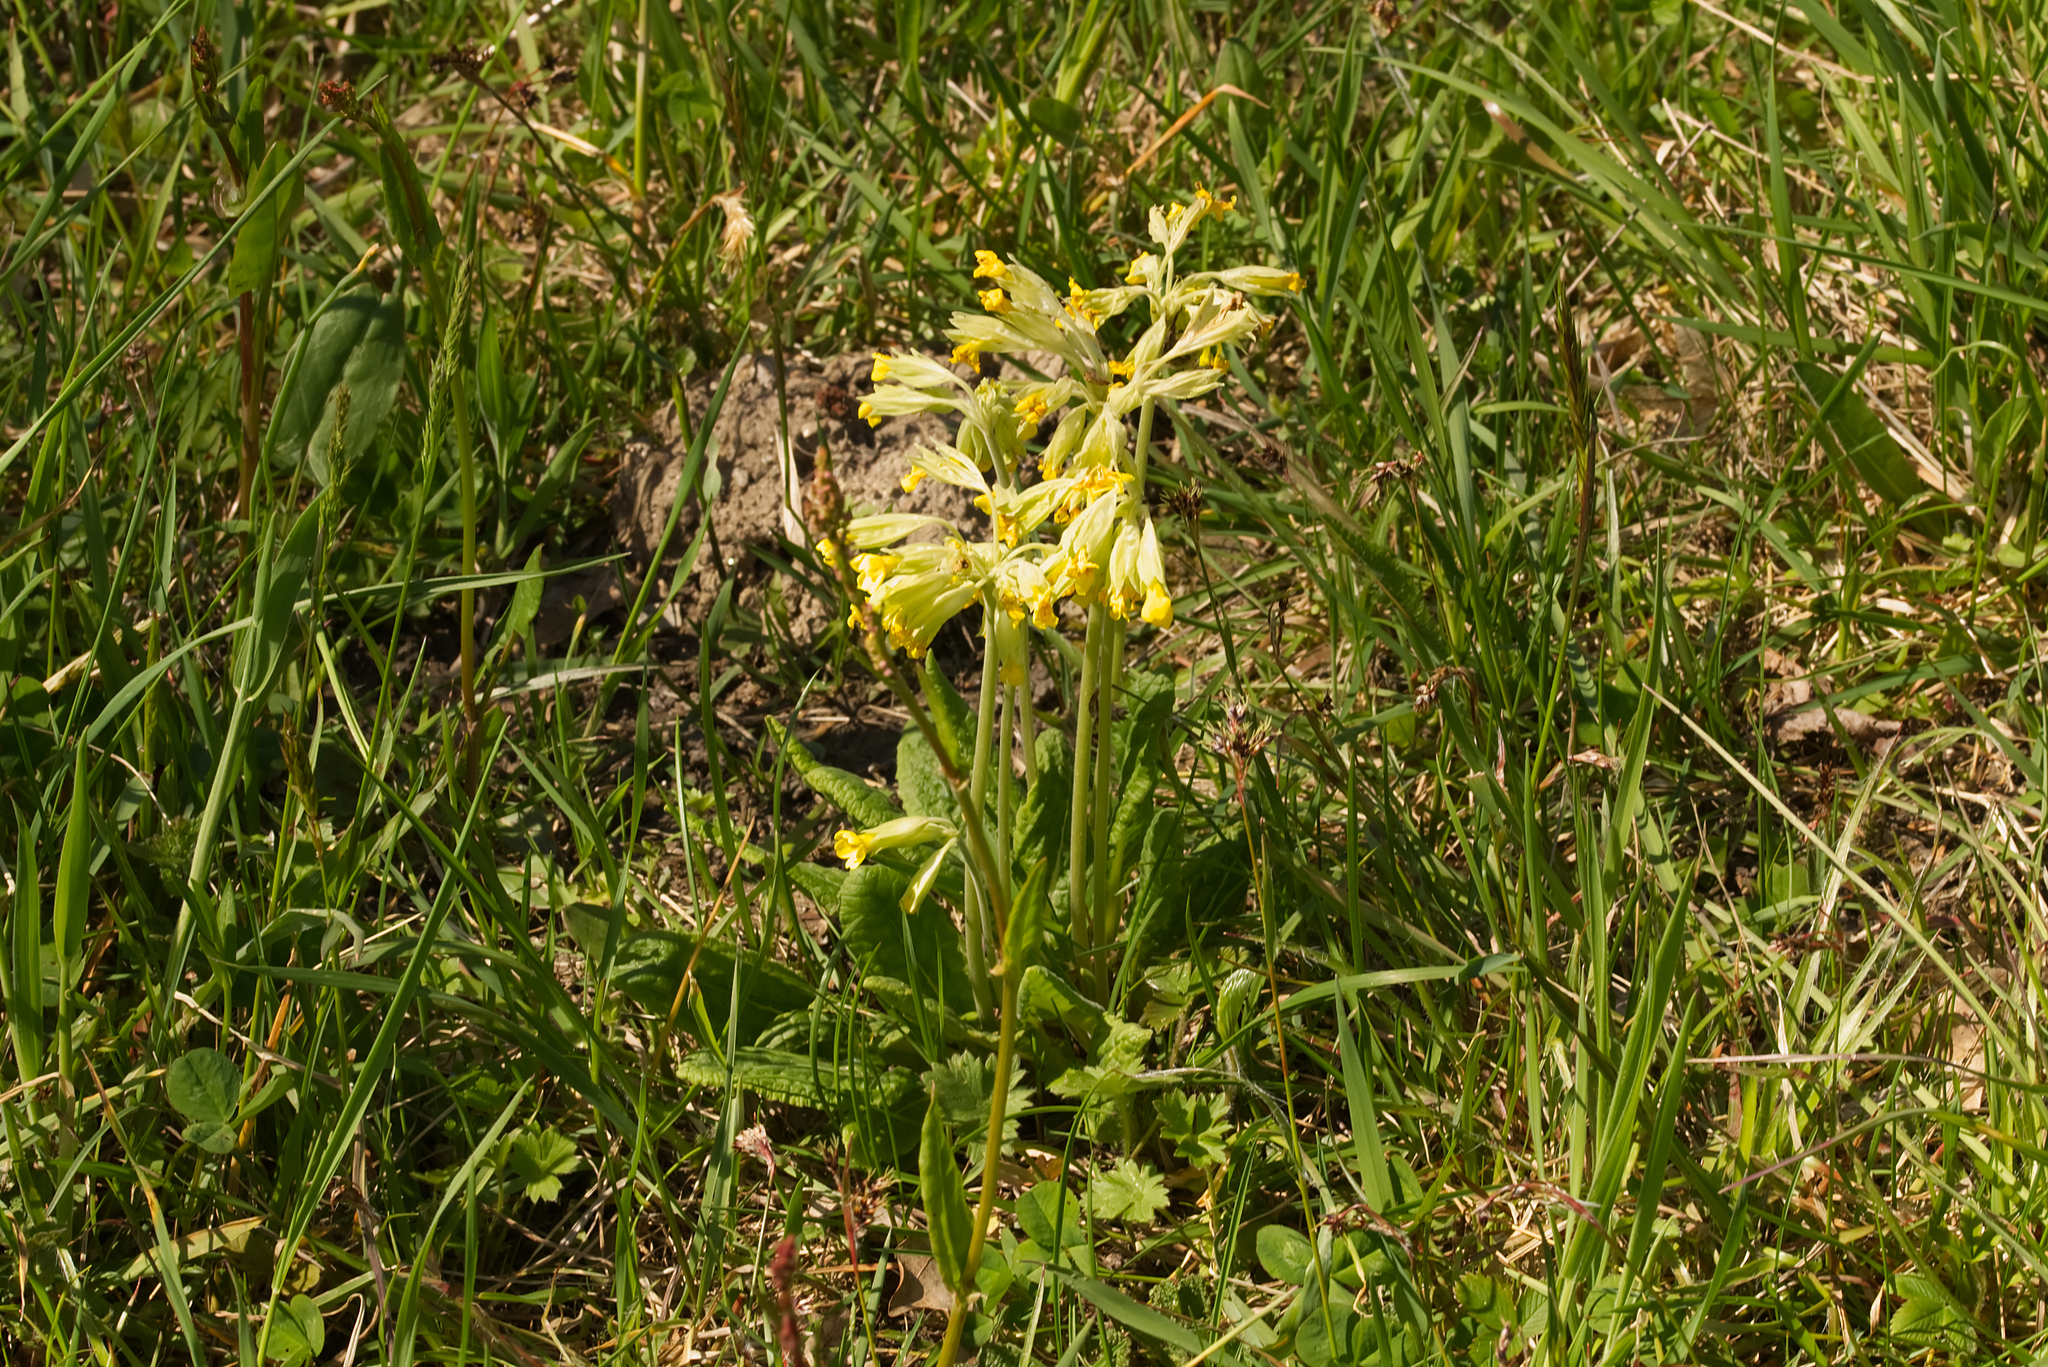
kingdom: Plantae
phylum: Tracheophyta
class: Magnoliopsida
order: Ericales
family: Primulaceae
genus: Primula
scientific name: Primula veris
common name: Cowslip
